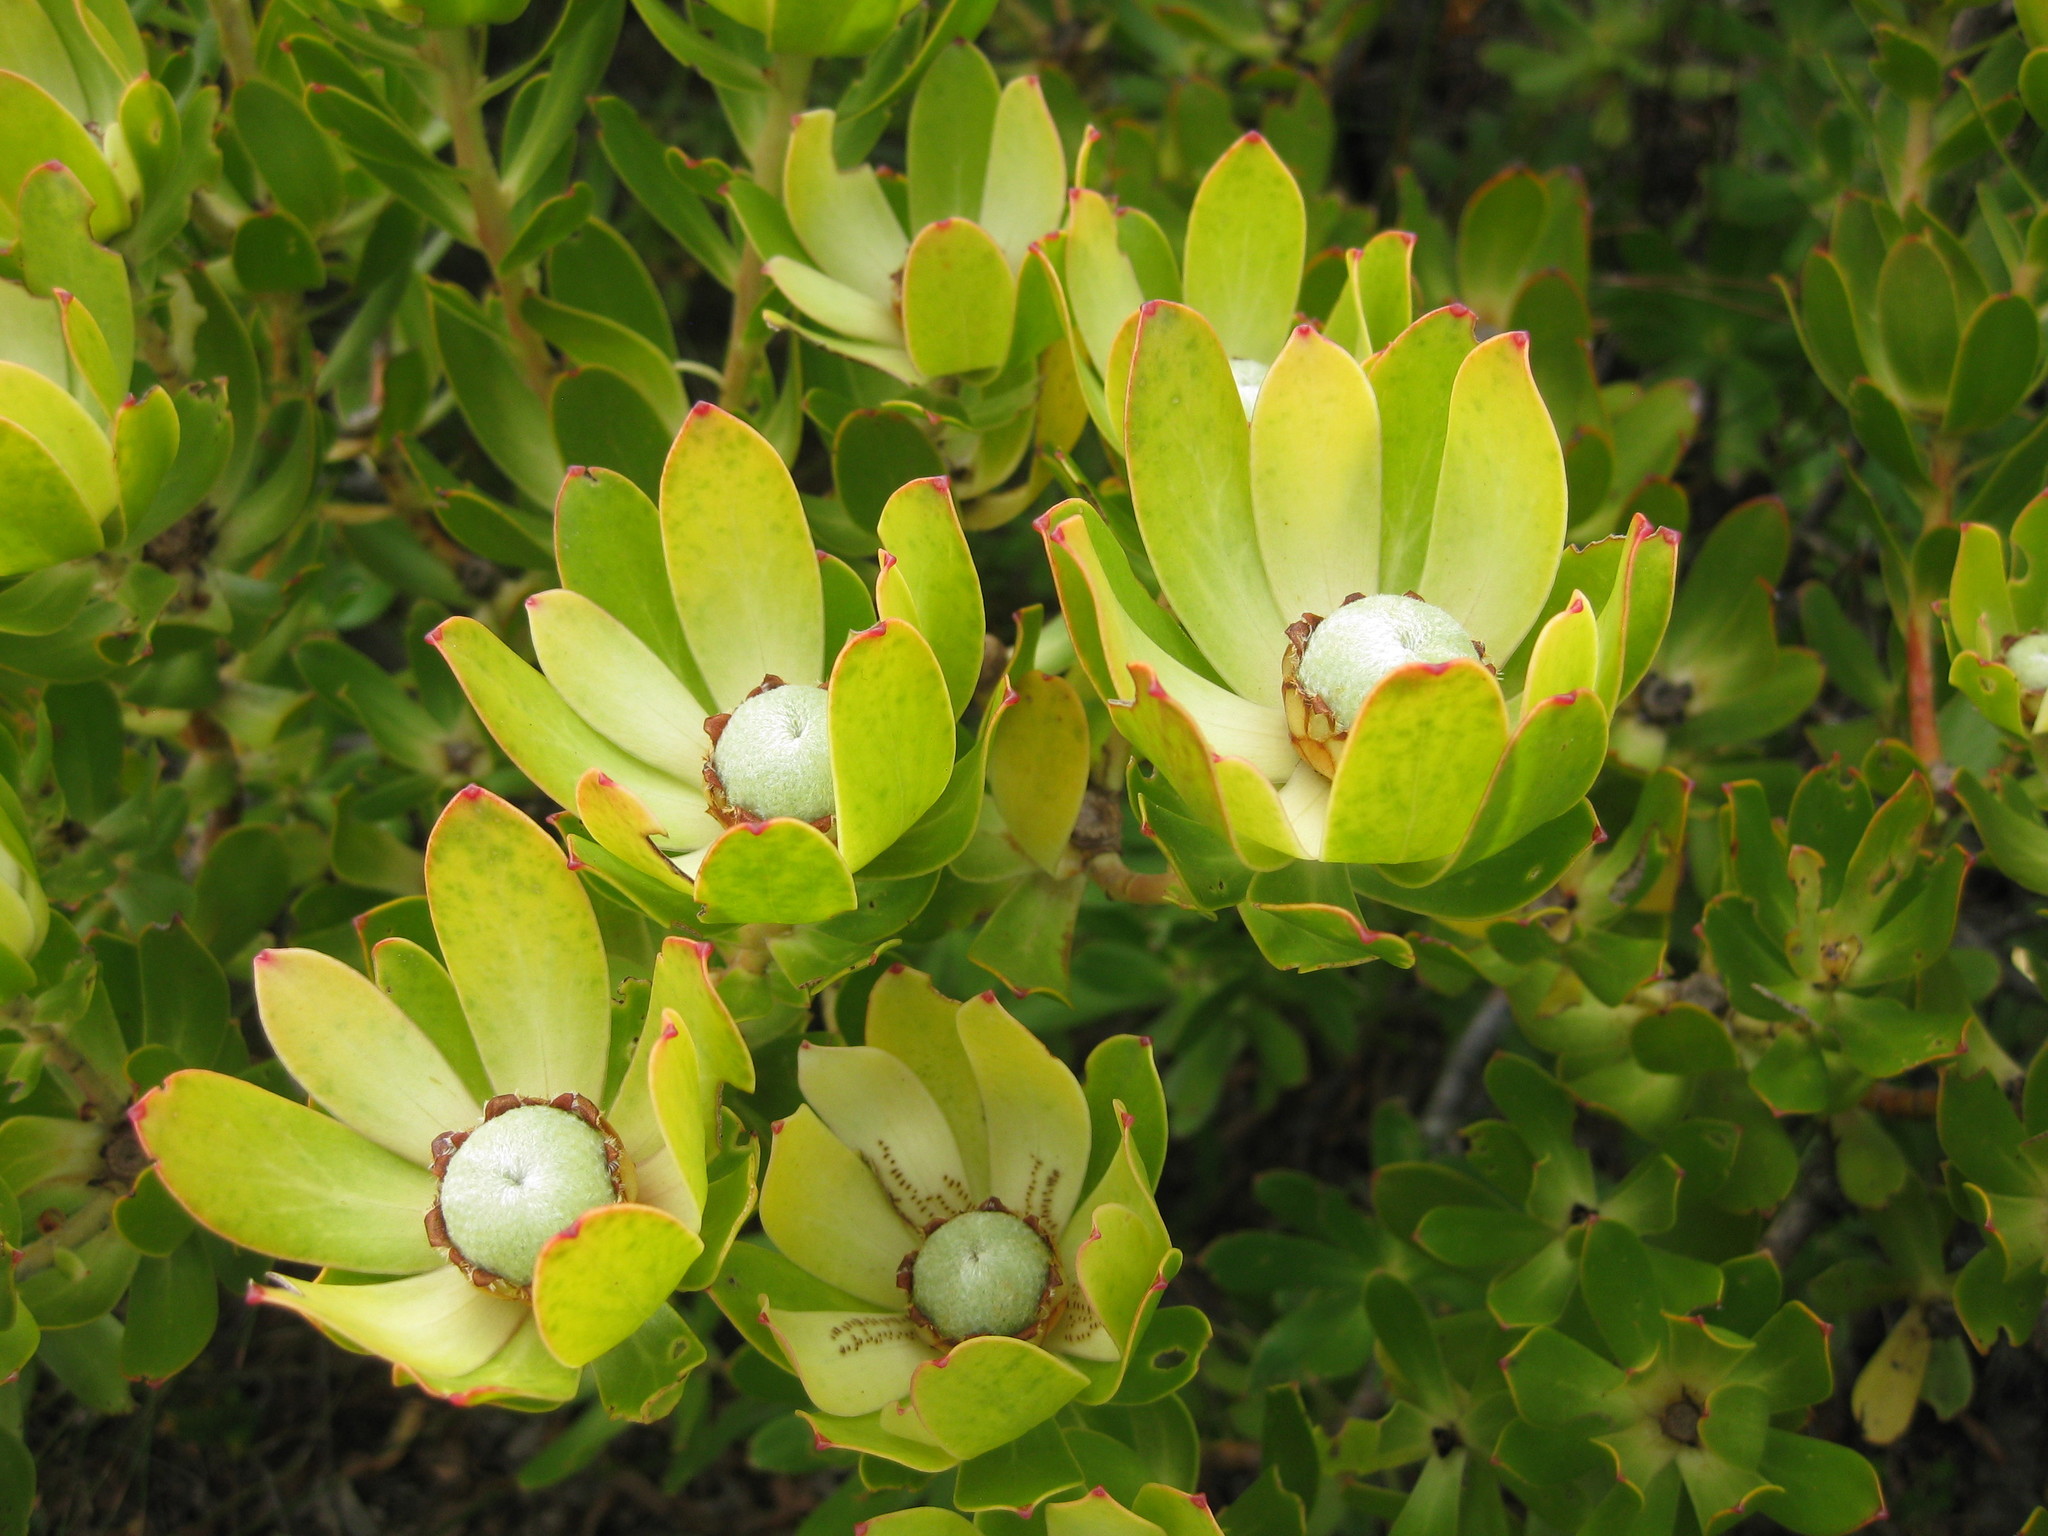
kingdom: Plantae
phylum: Tracheophyta
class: Magnoliopsida
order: Proteales
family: Proteaceae
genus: Leucadendron
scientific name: Leucadendron strobilinum
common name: Mountain rose
